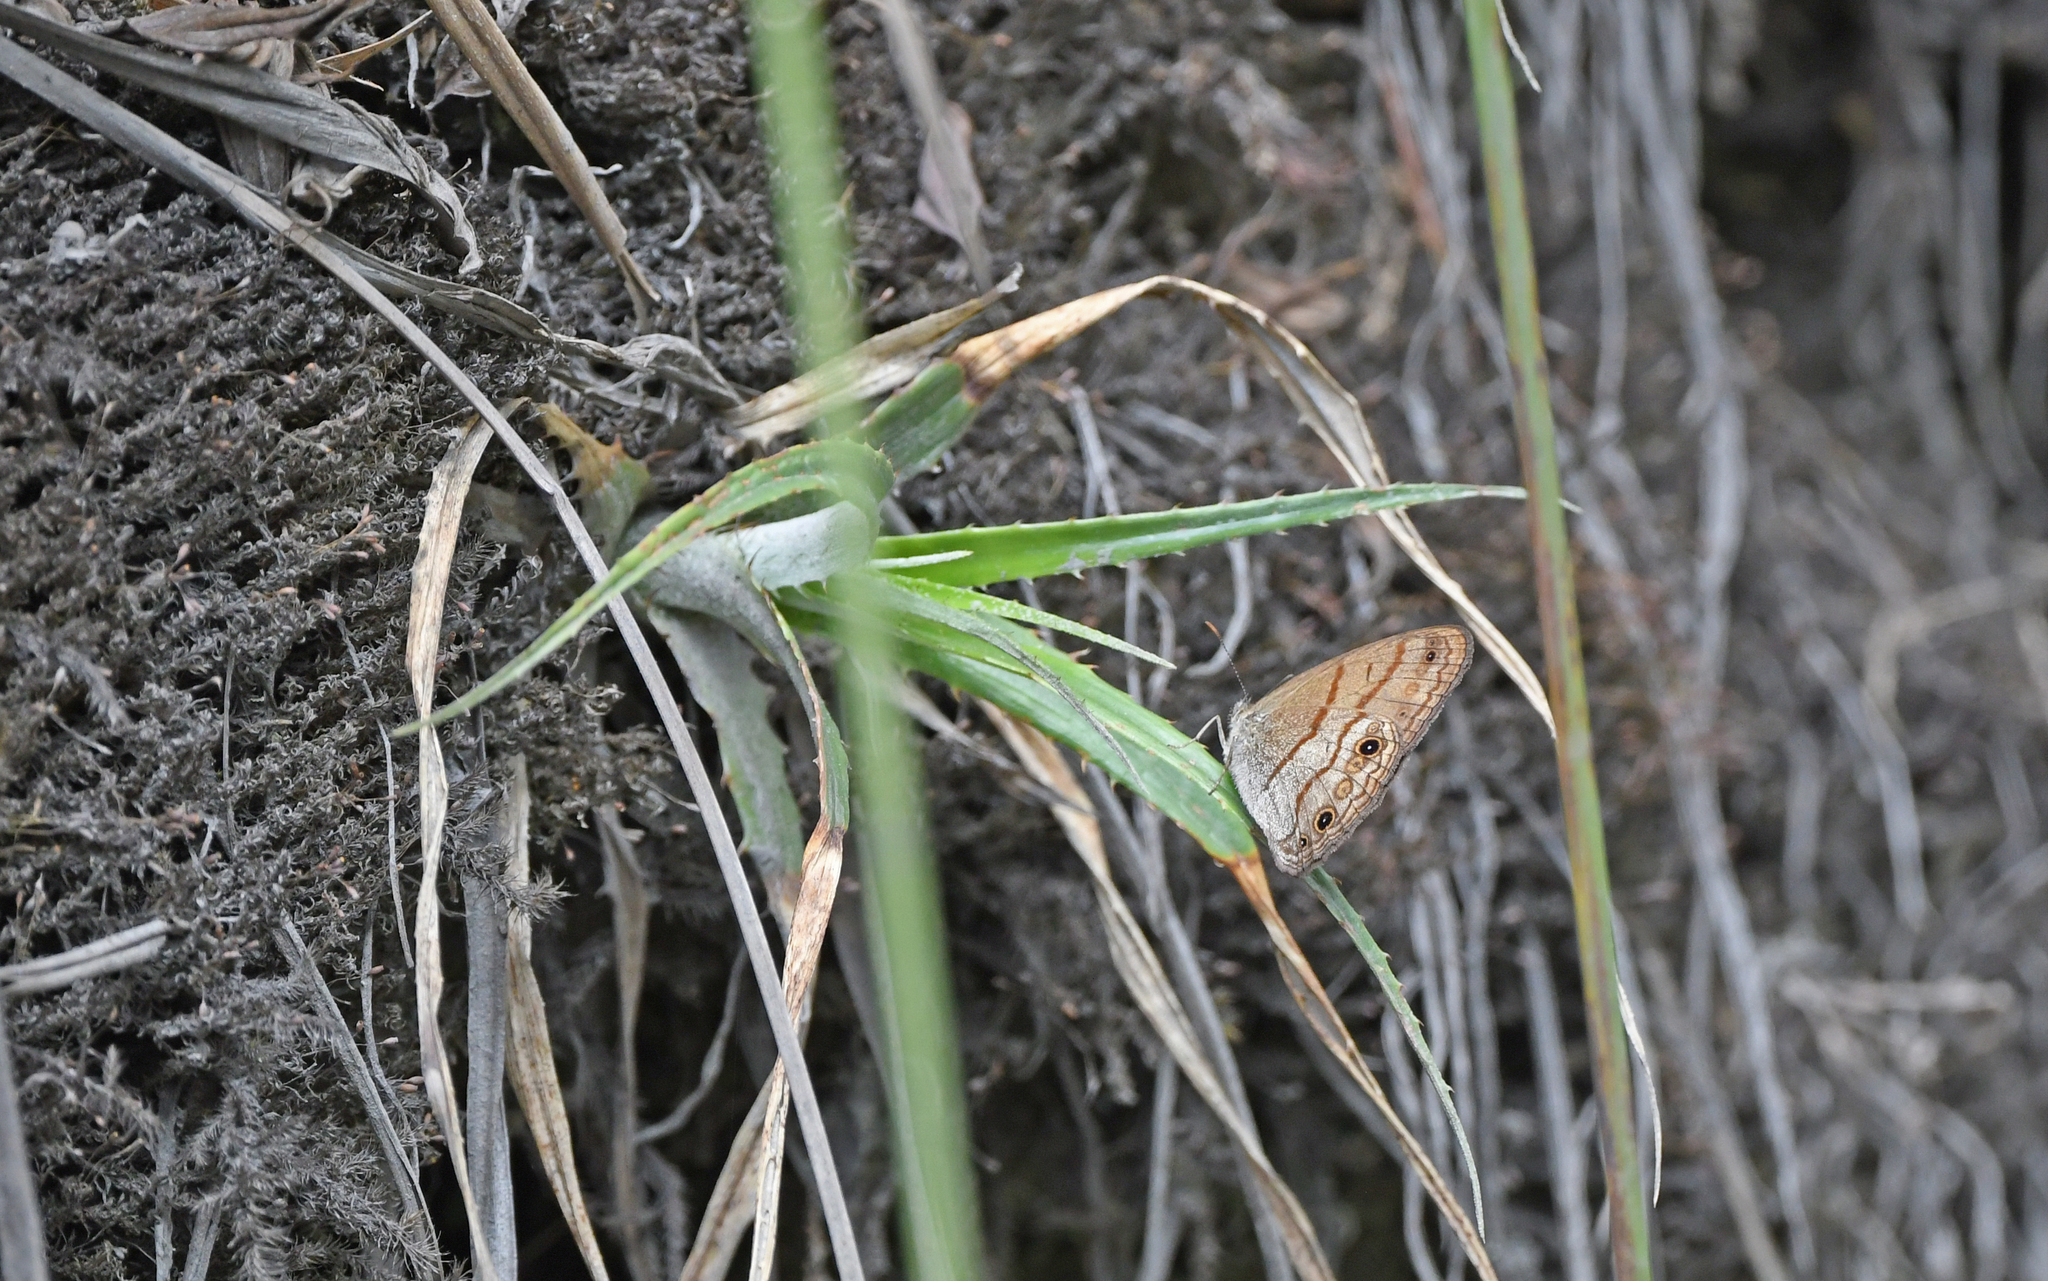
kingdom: Animalia
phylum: Arthropoda
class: Insecta
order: Lepidoptera
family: Nymphalidae
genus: Hermeuptychia
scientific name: Hermeuptychia cucullina
